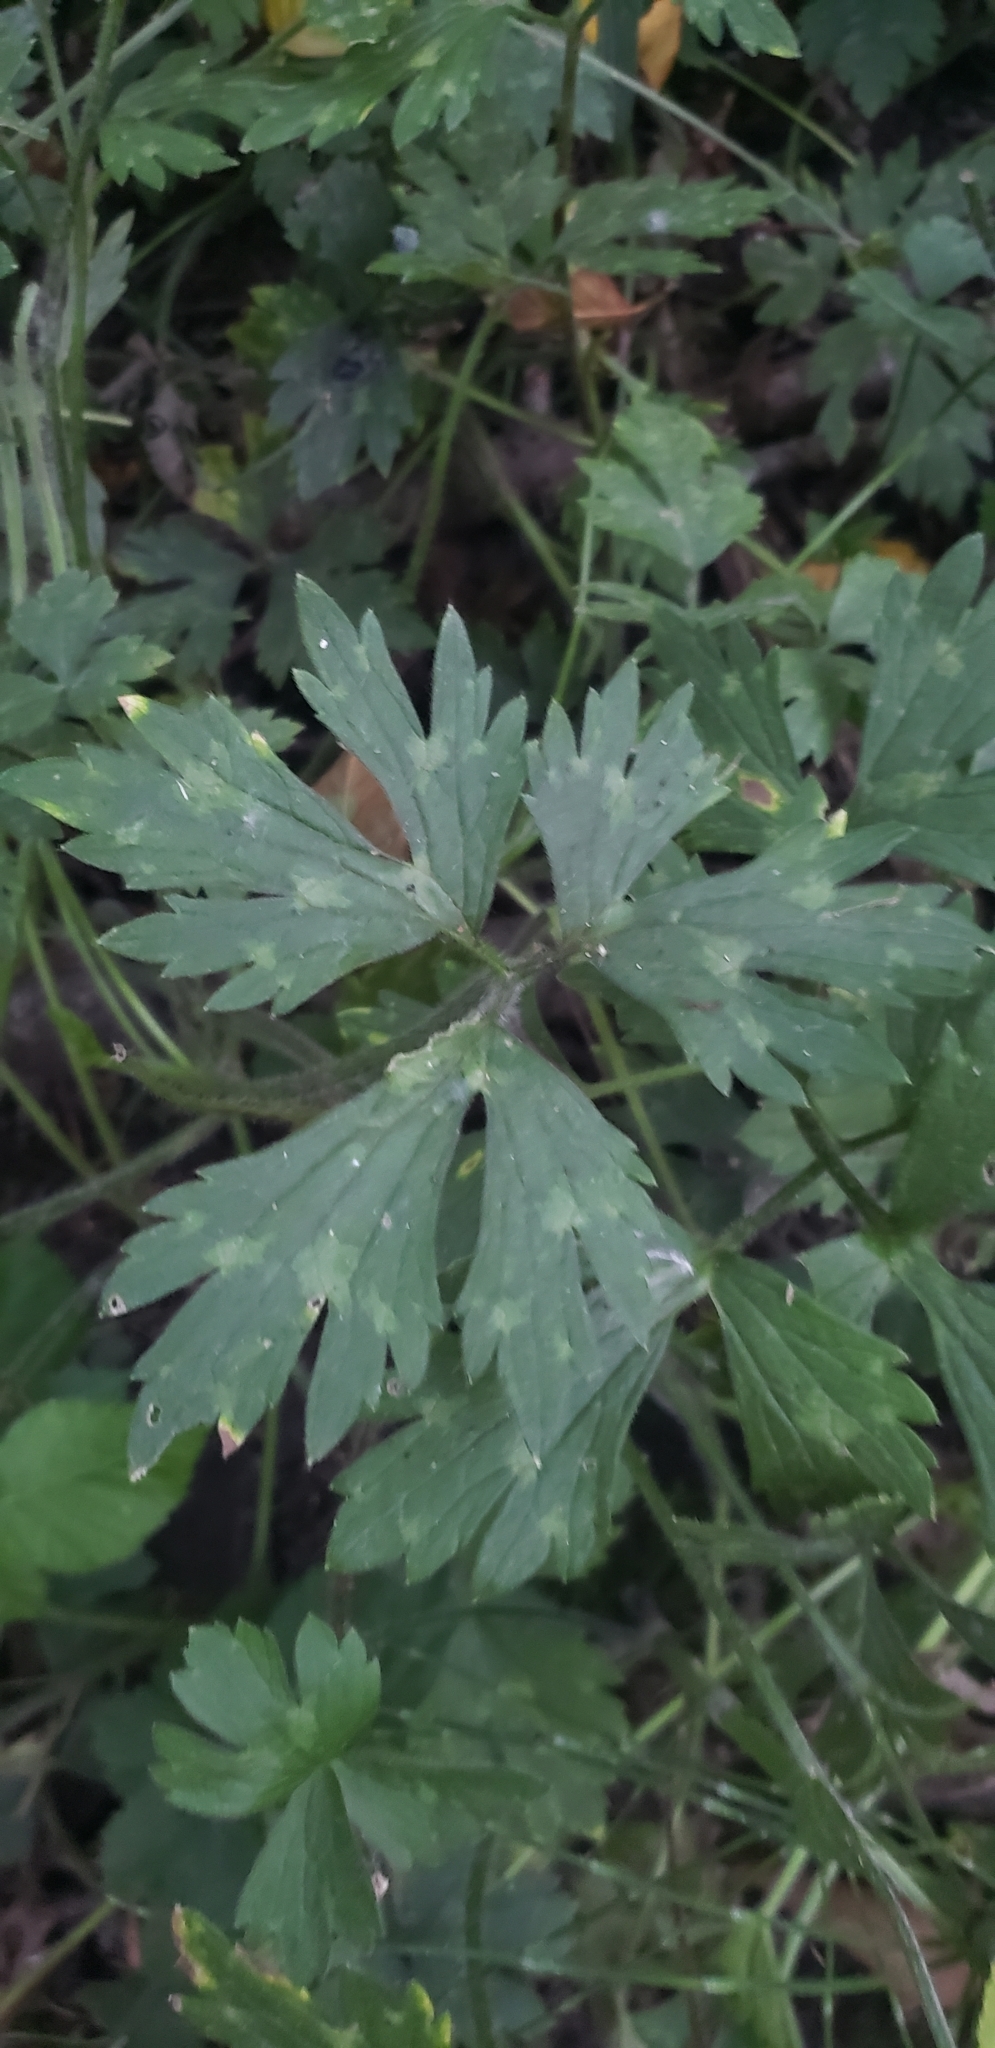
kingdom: Plantae
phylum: Tracheophyta
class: Magnoliopsida
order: Ranunculales
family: Ranunculaceae
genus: Ranunculus
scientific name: Ranunculus repens
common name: Creeping buttercup
